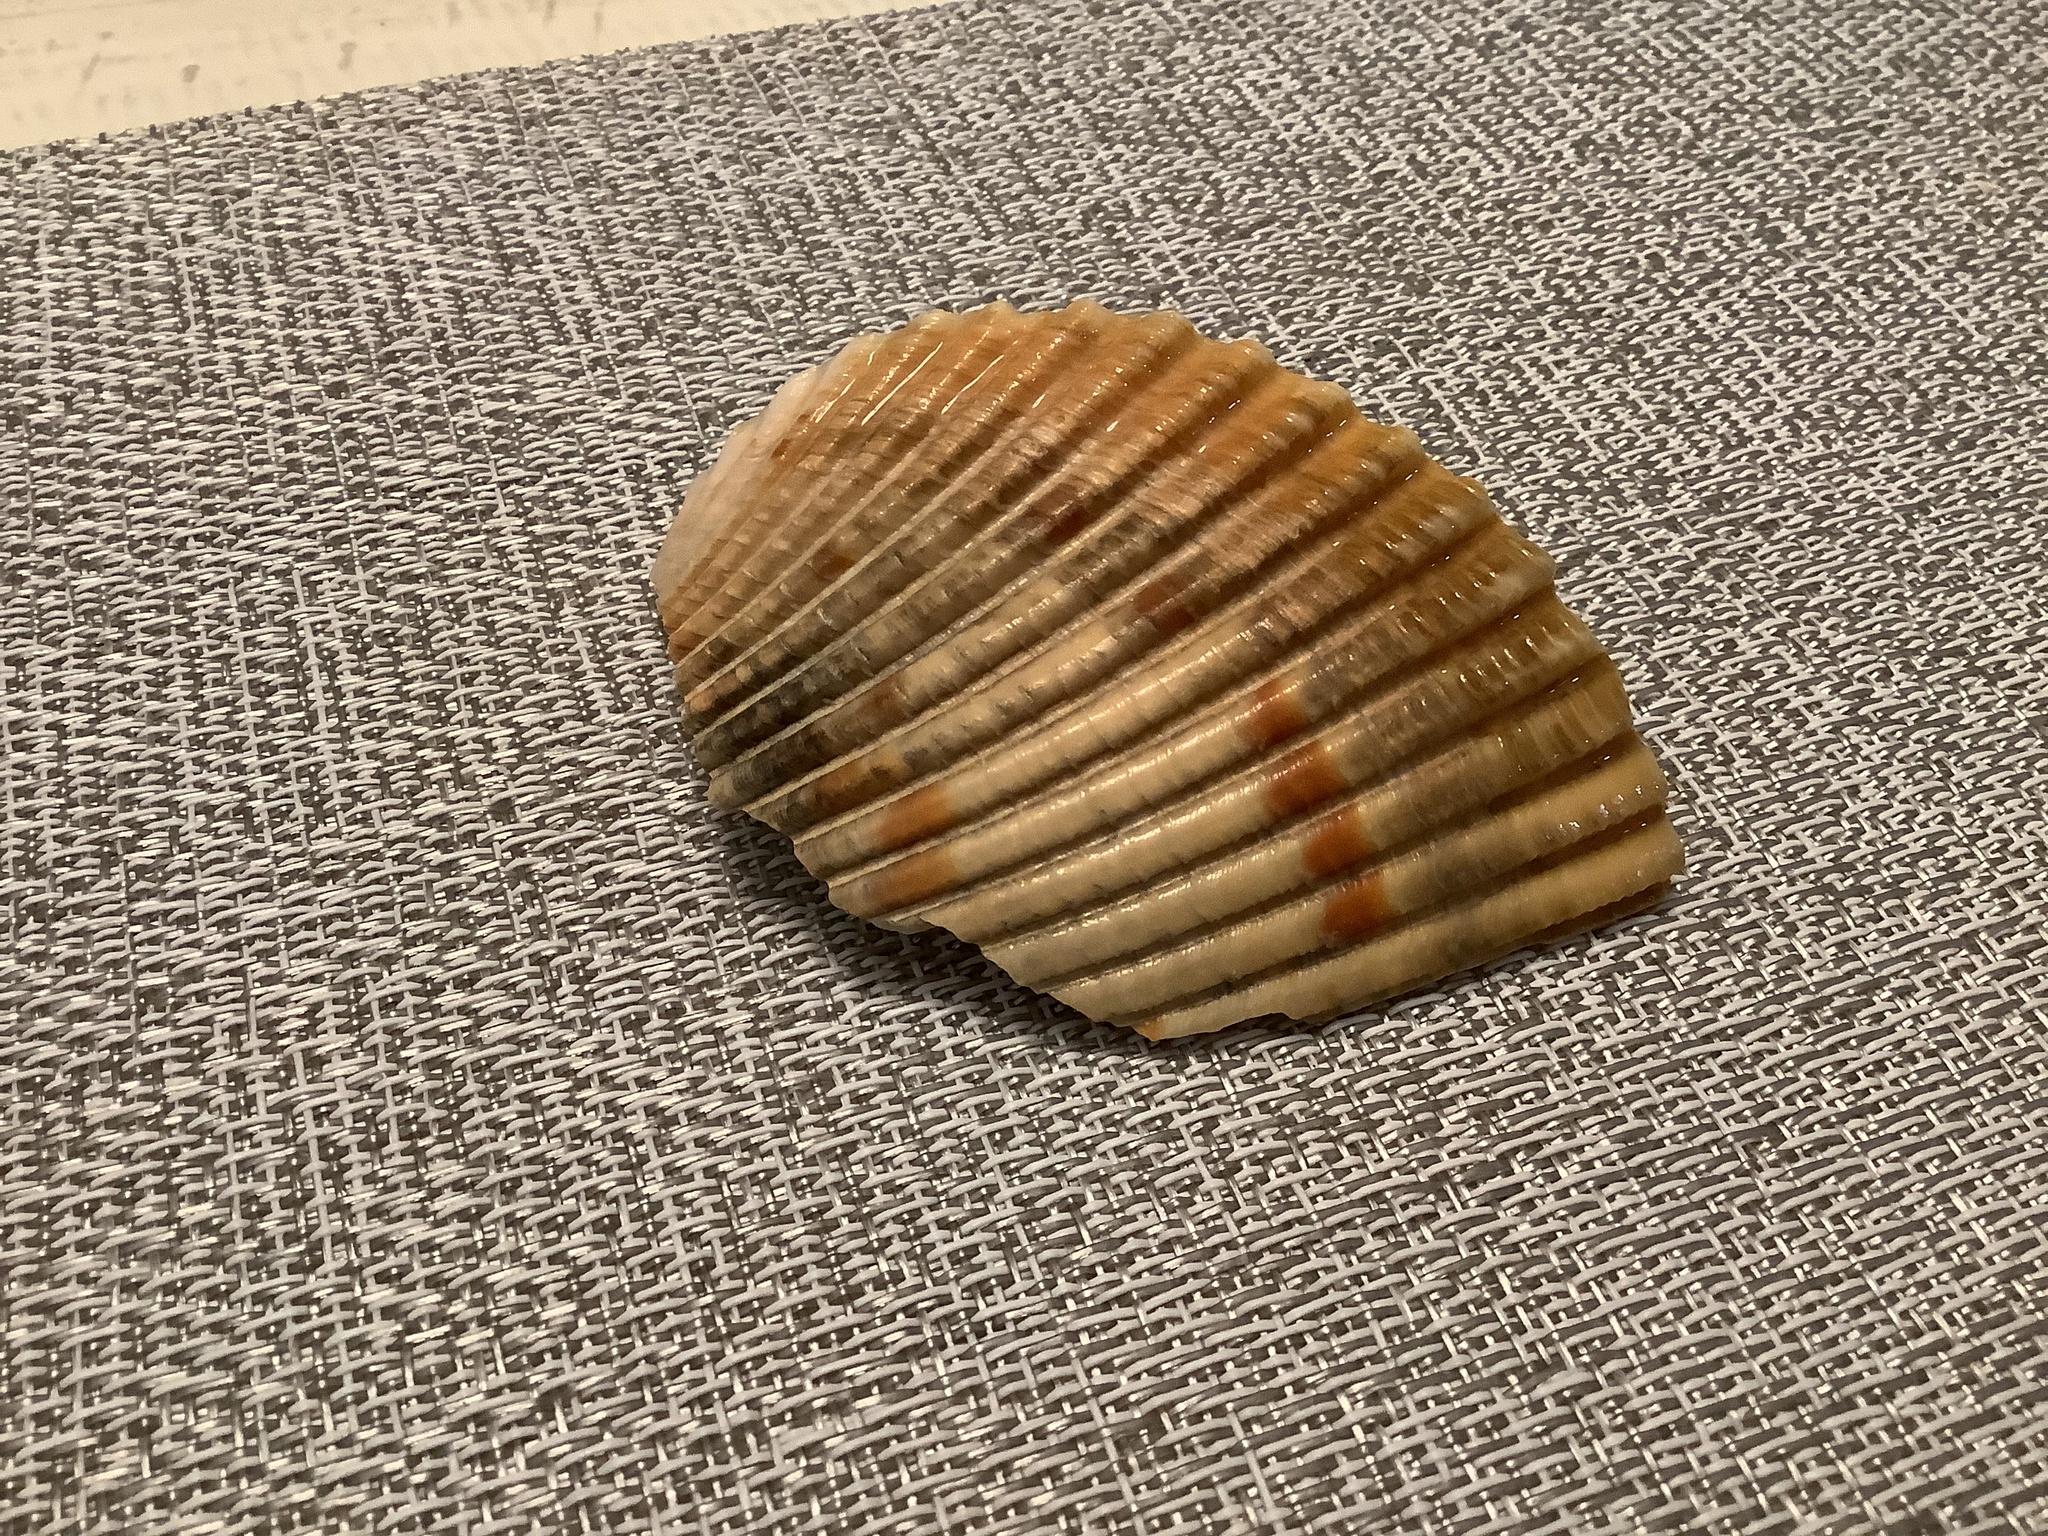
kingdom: Animalia
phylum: Mollusca
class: Bivalvia
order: Cardiida
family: Cardiidae
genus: Dinocardium
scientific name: Dinocardium robustum
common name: Atlantic giant cockle
